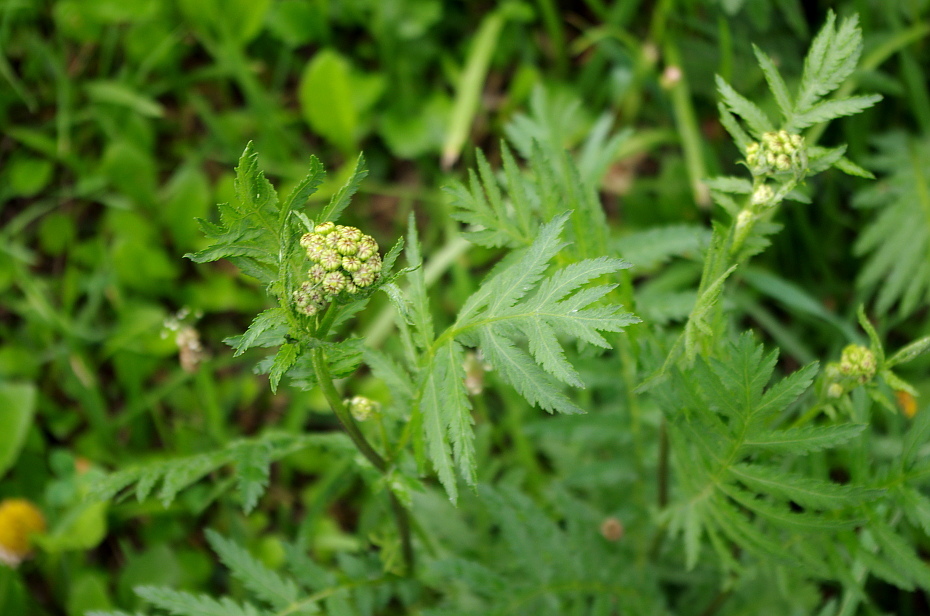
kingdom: Plantae
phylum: Tracheophyta
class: Magnoliopsida
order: Asterales
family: Asteraceae
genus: Tanacetum
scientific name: Tanacetum vulgare
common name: Common tansy
